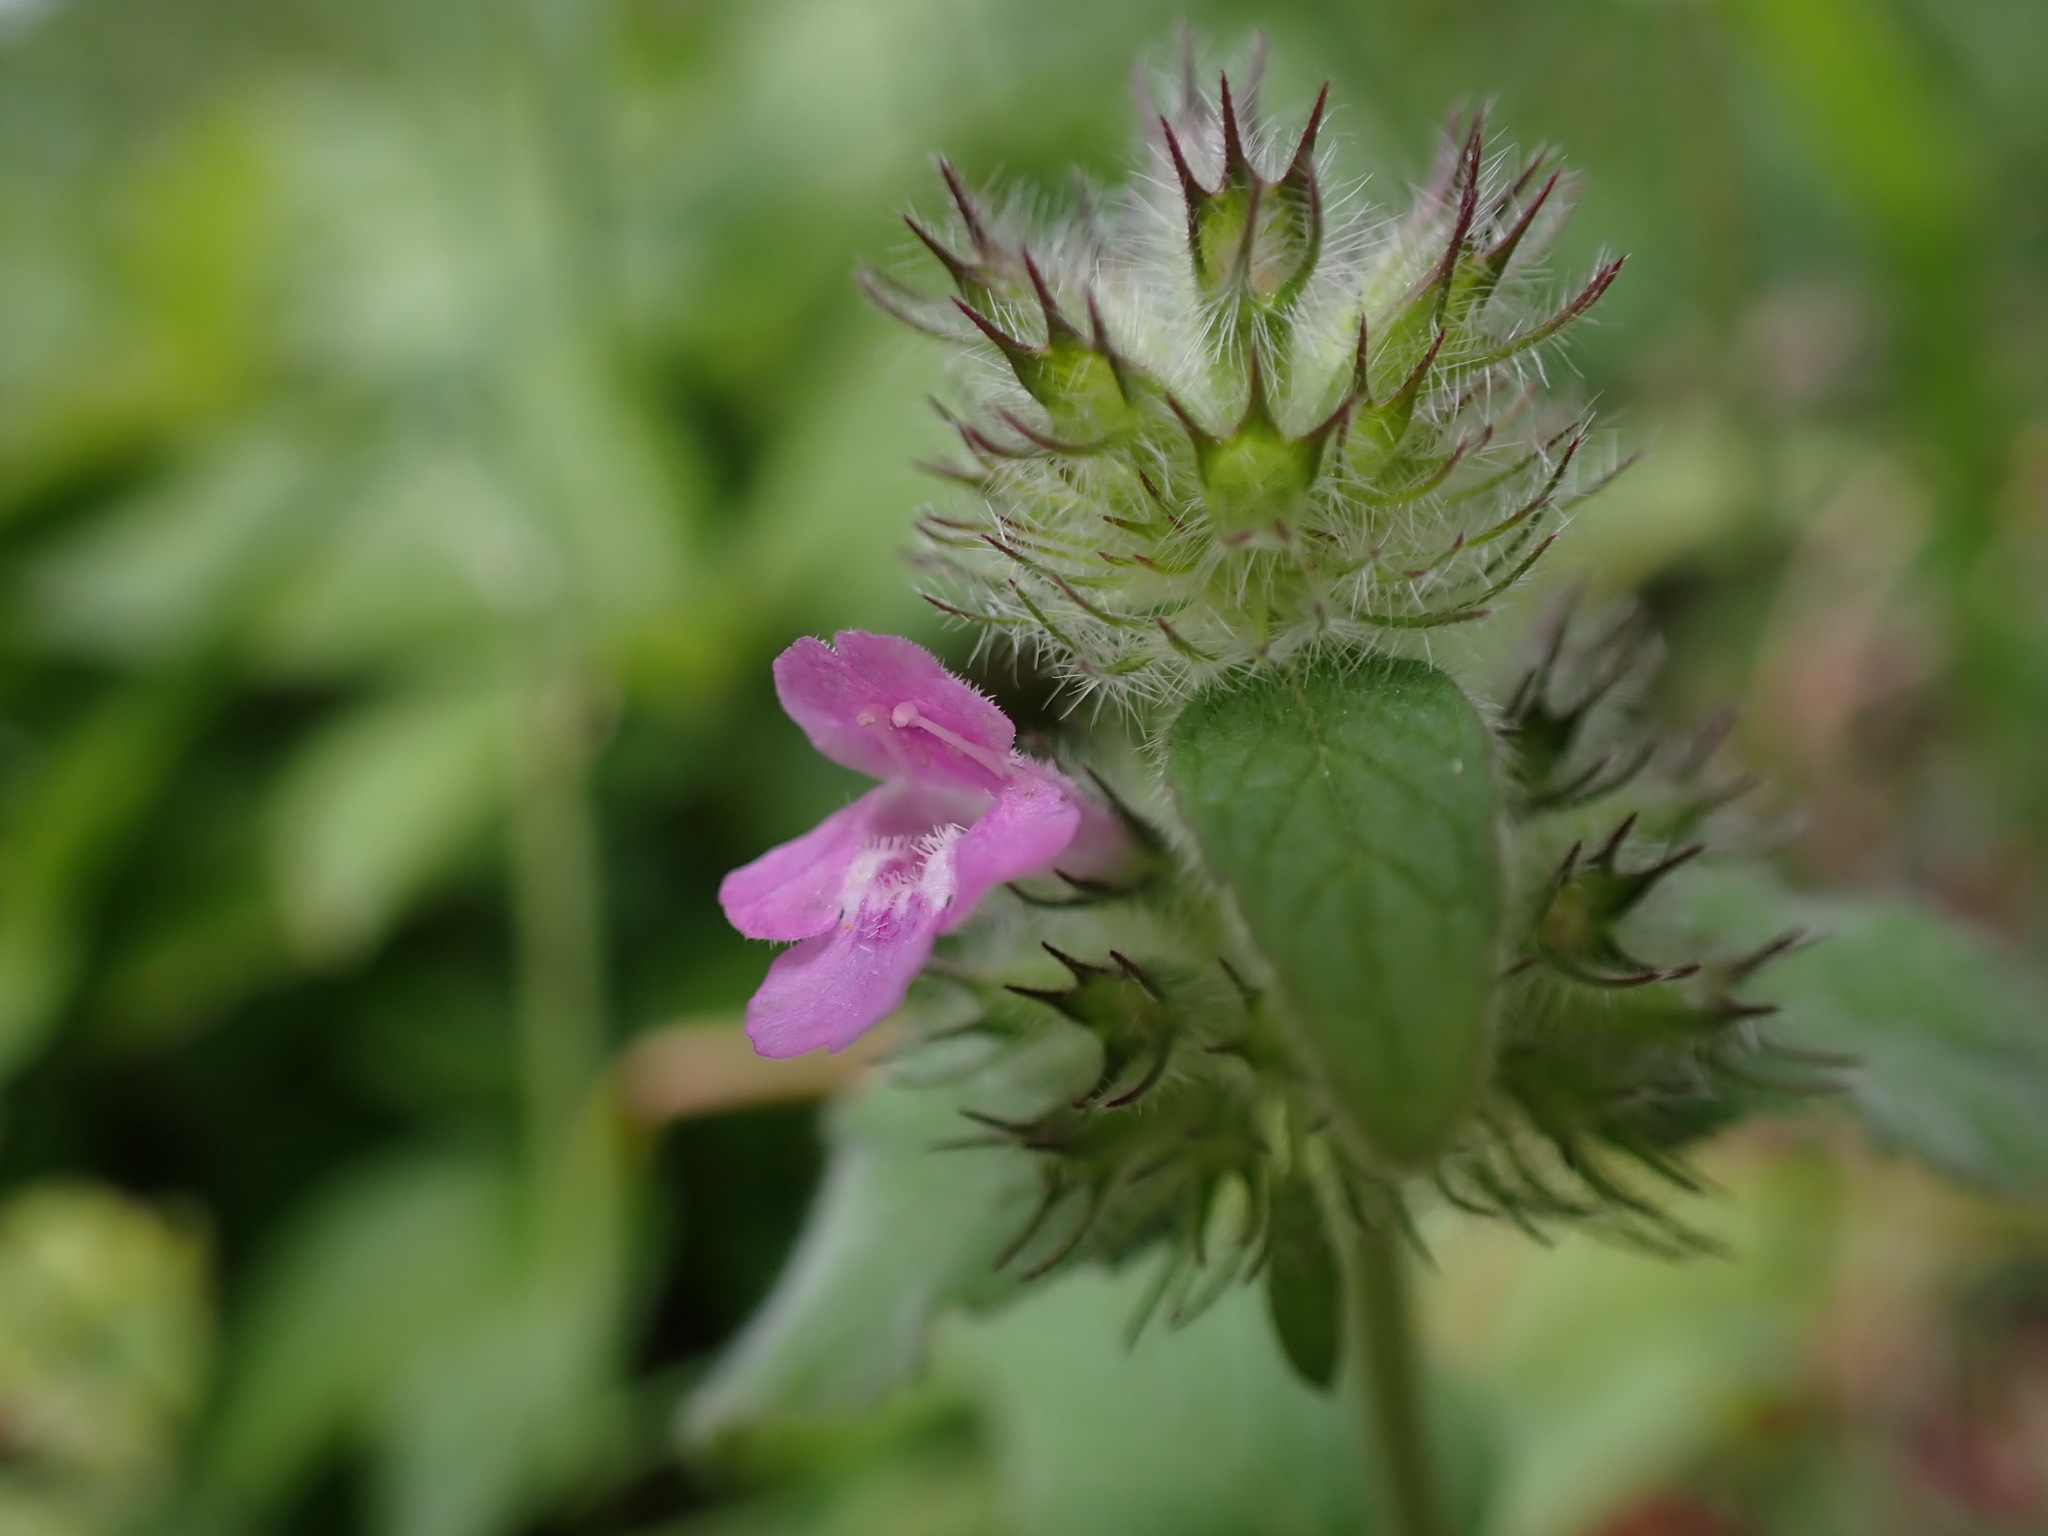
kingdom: Plantae
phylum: Tracheophyta
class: Magnoliopsida
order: Lamiales
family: Lamiaceae
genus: Clinopodium
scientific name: Clinopodium vulgare
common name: Wild basil
